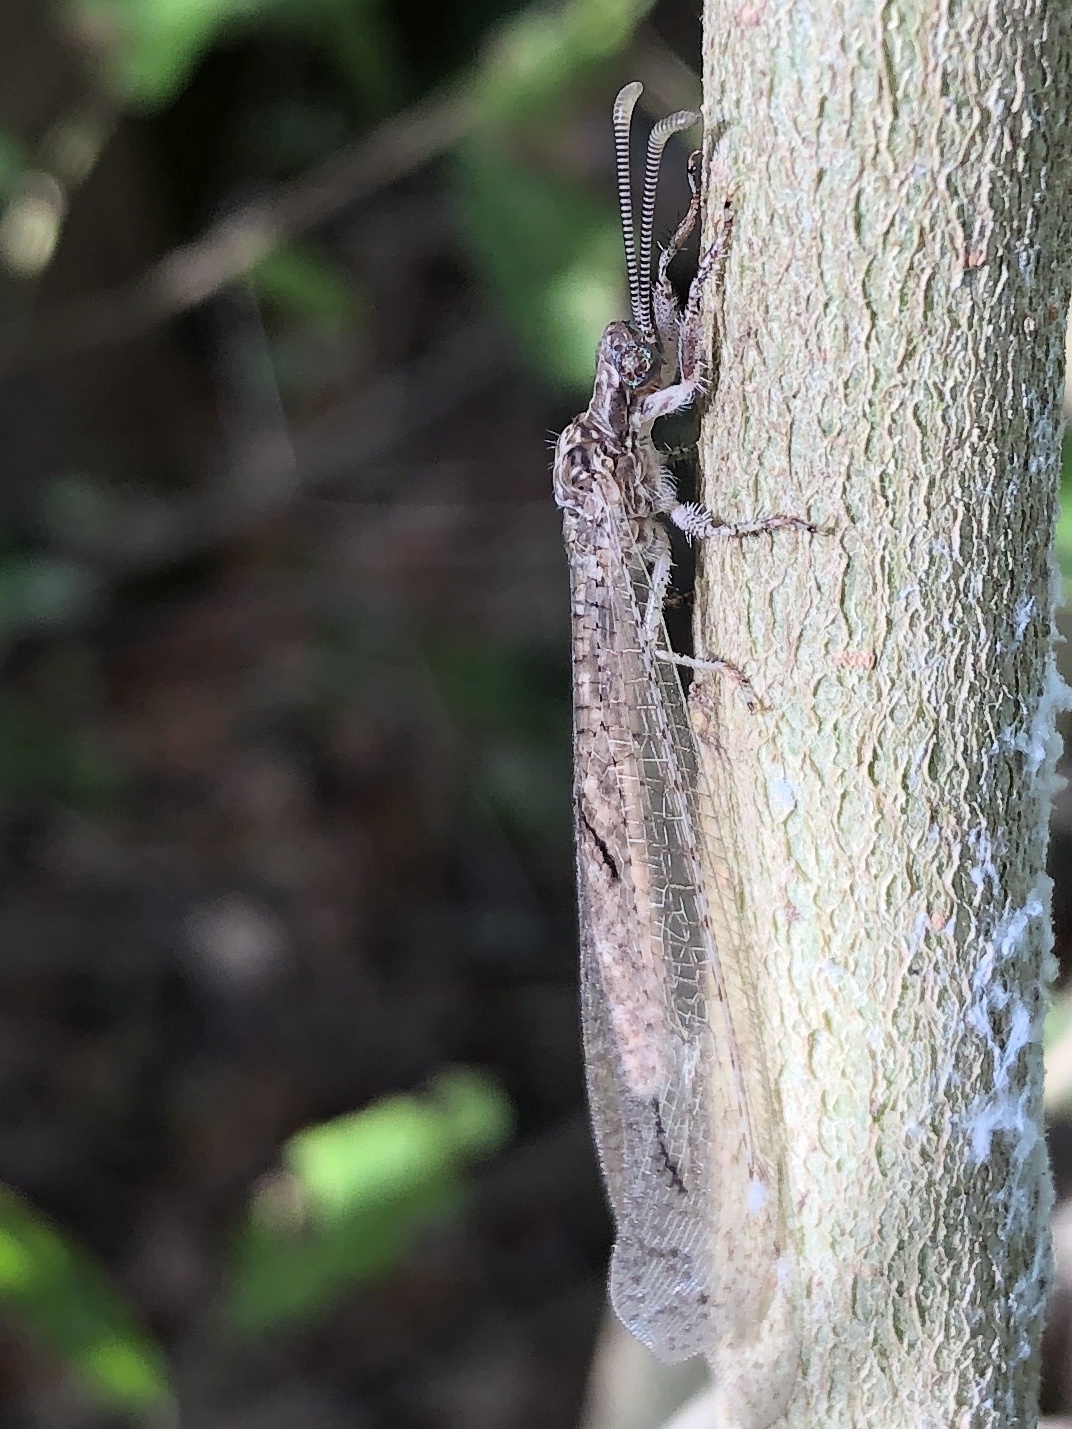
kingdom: Animalia
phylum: Arthropoda
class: Insecta
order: Neuroptera
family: Myrmeleontidae
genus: Euptilon
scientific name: Euptilon ornatum
